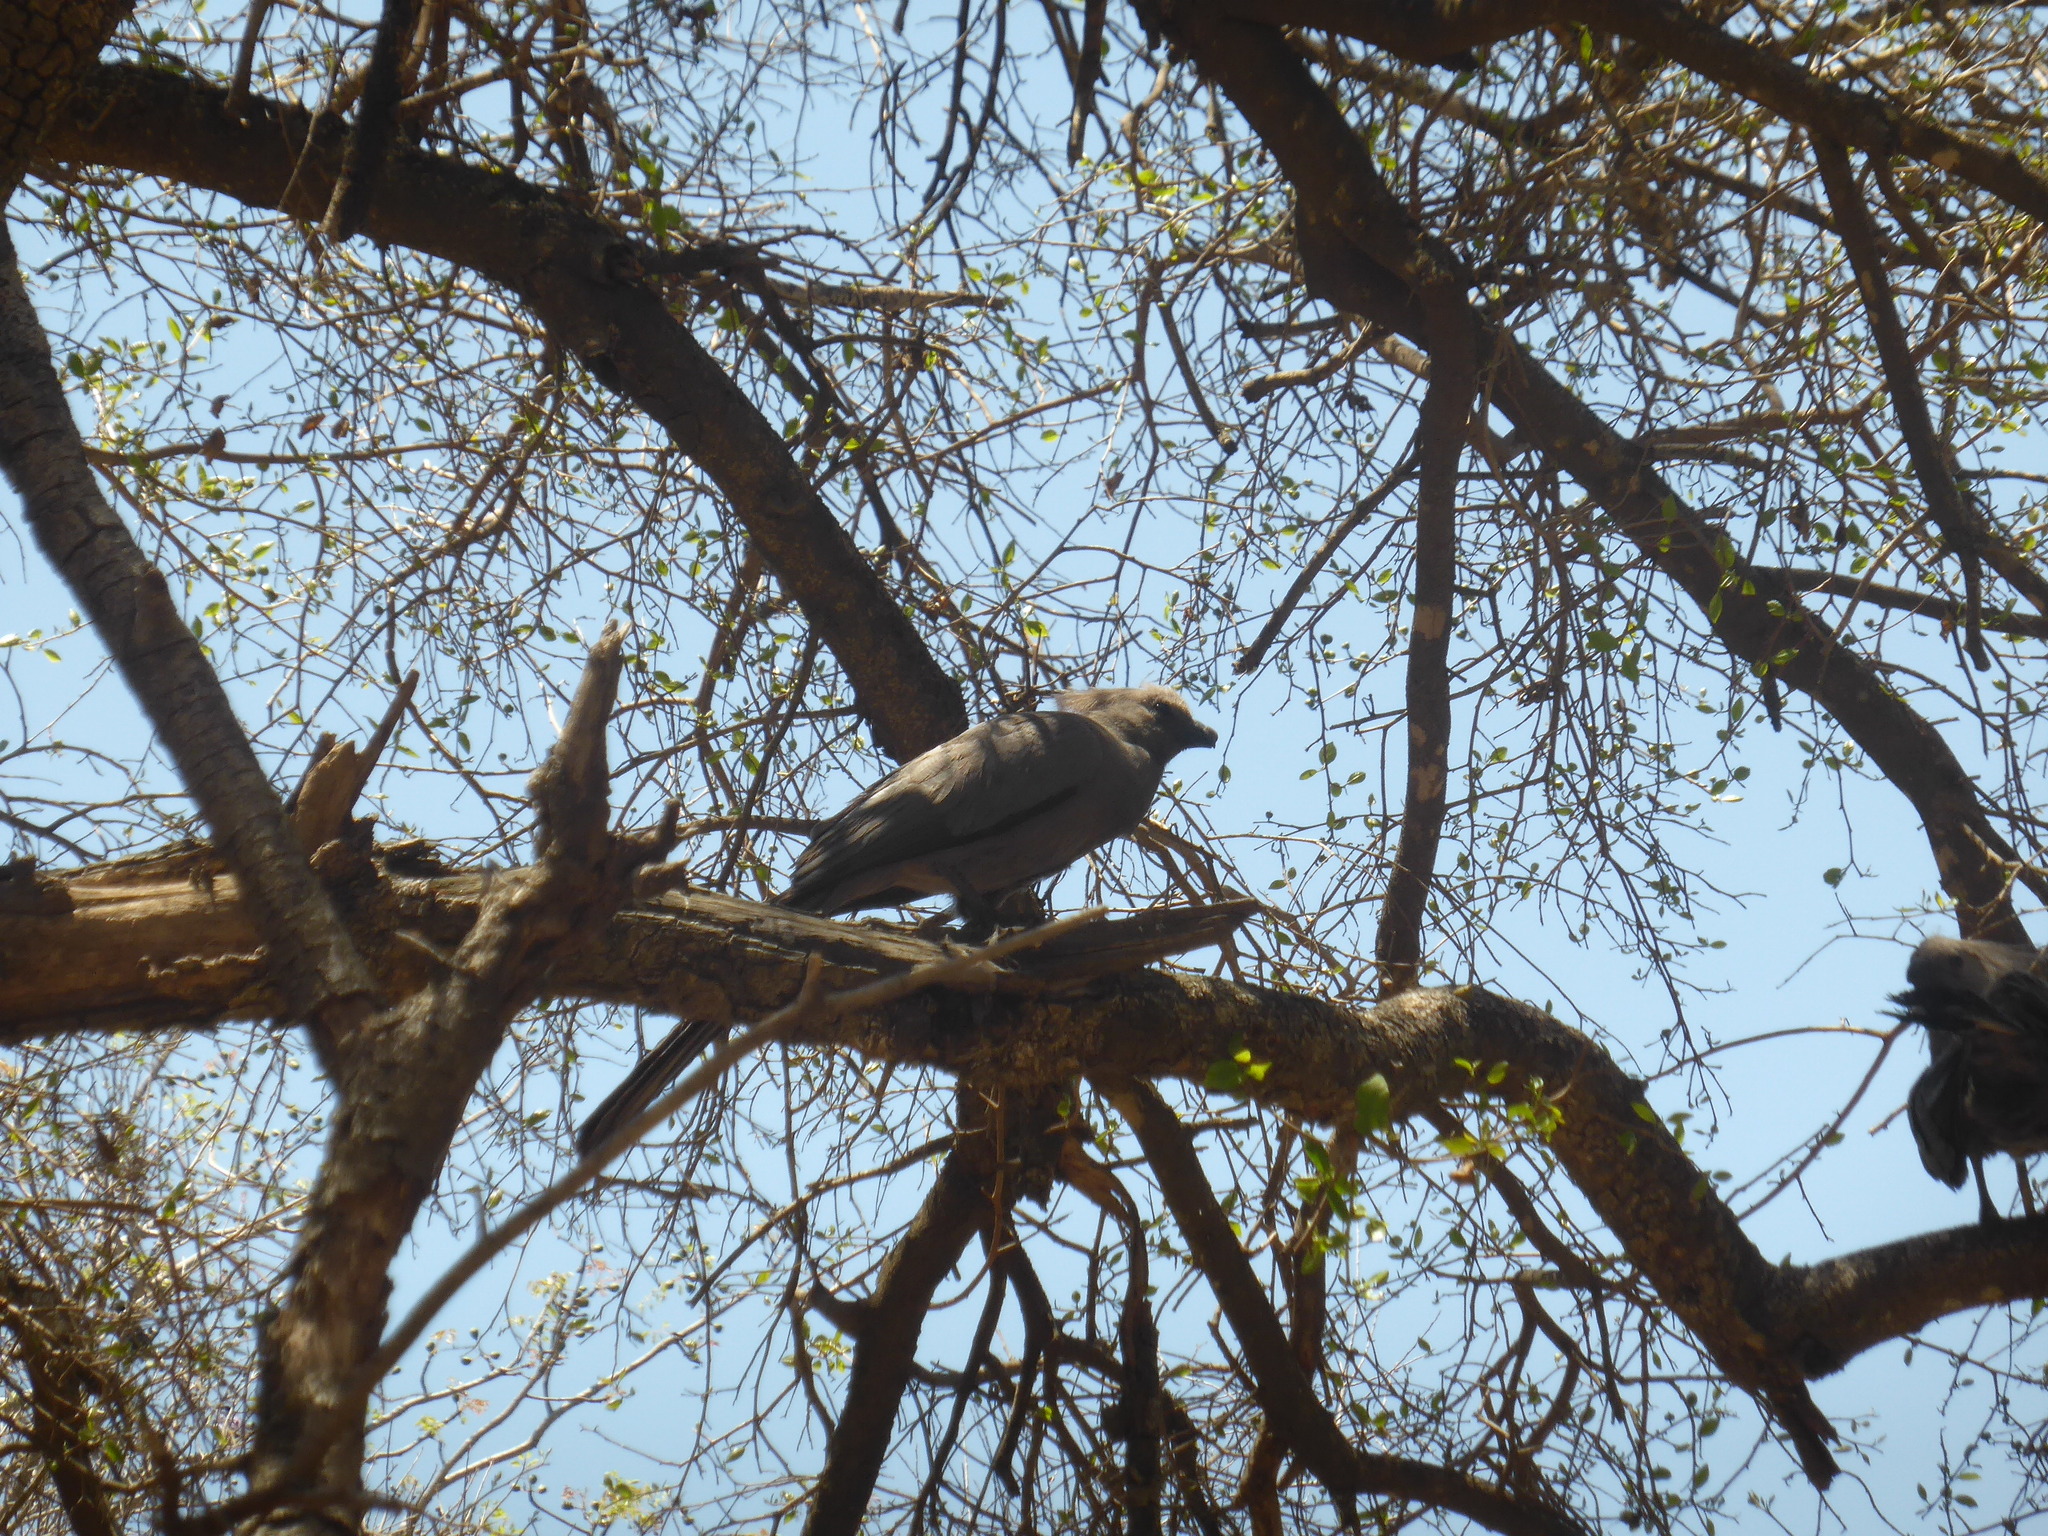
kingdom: Animalia
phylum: Chordata
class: Aves
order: Musophagiformes
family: Musophagidae
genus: Corythaixoides
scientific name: Corythaixoides concolor
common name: Grey go-away-bird
